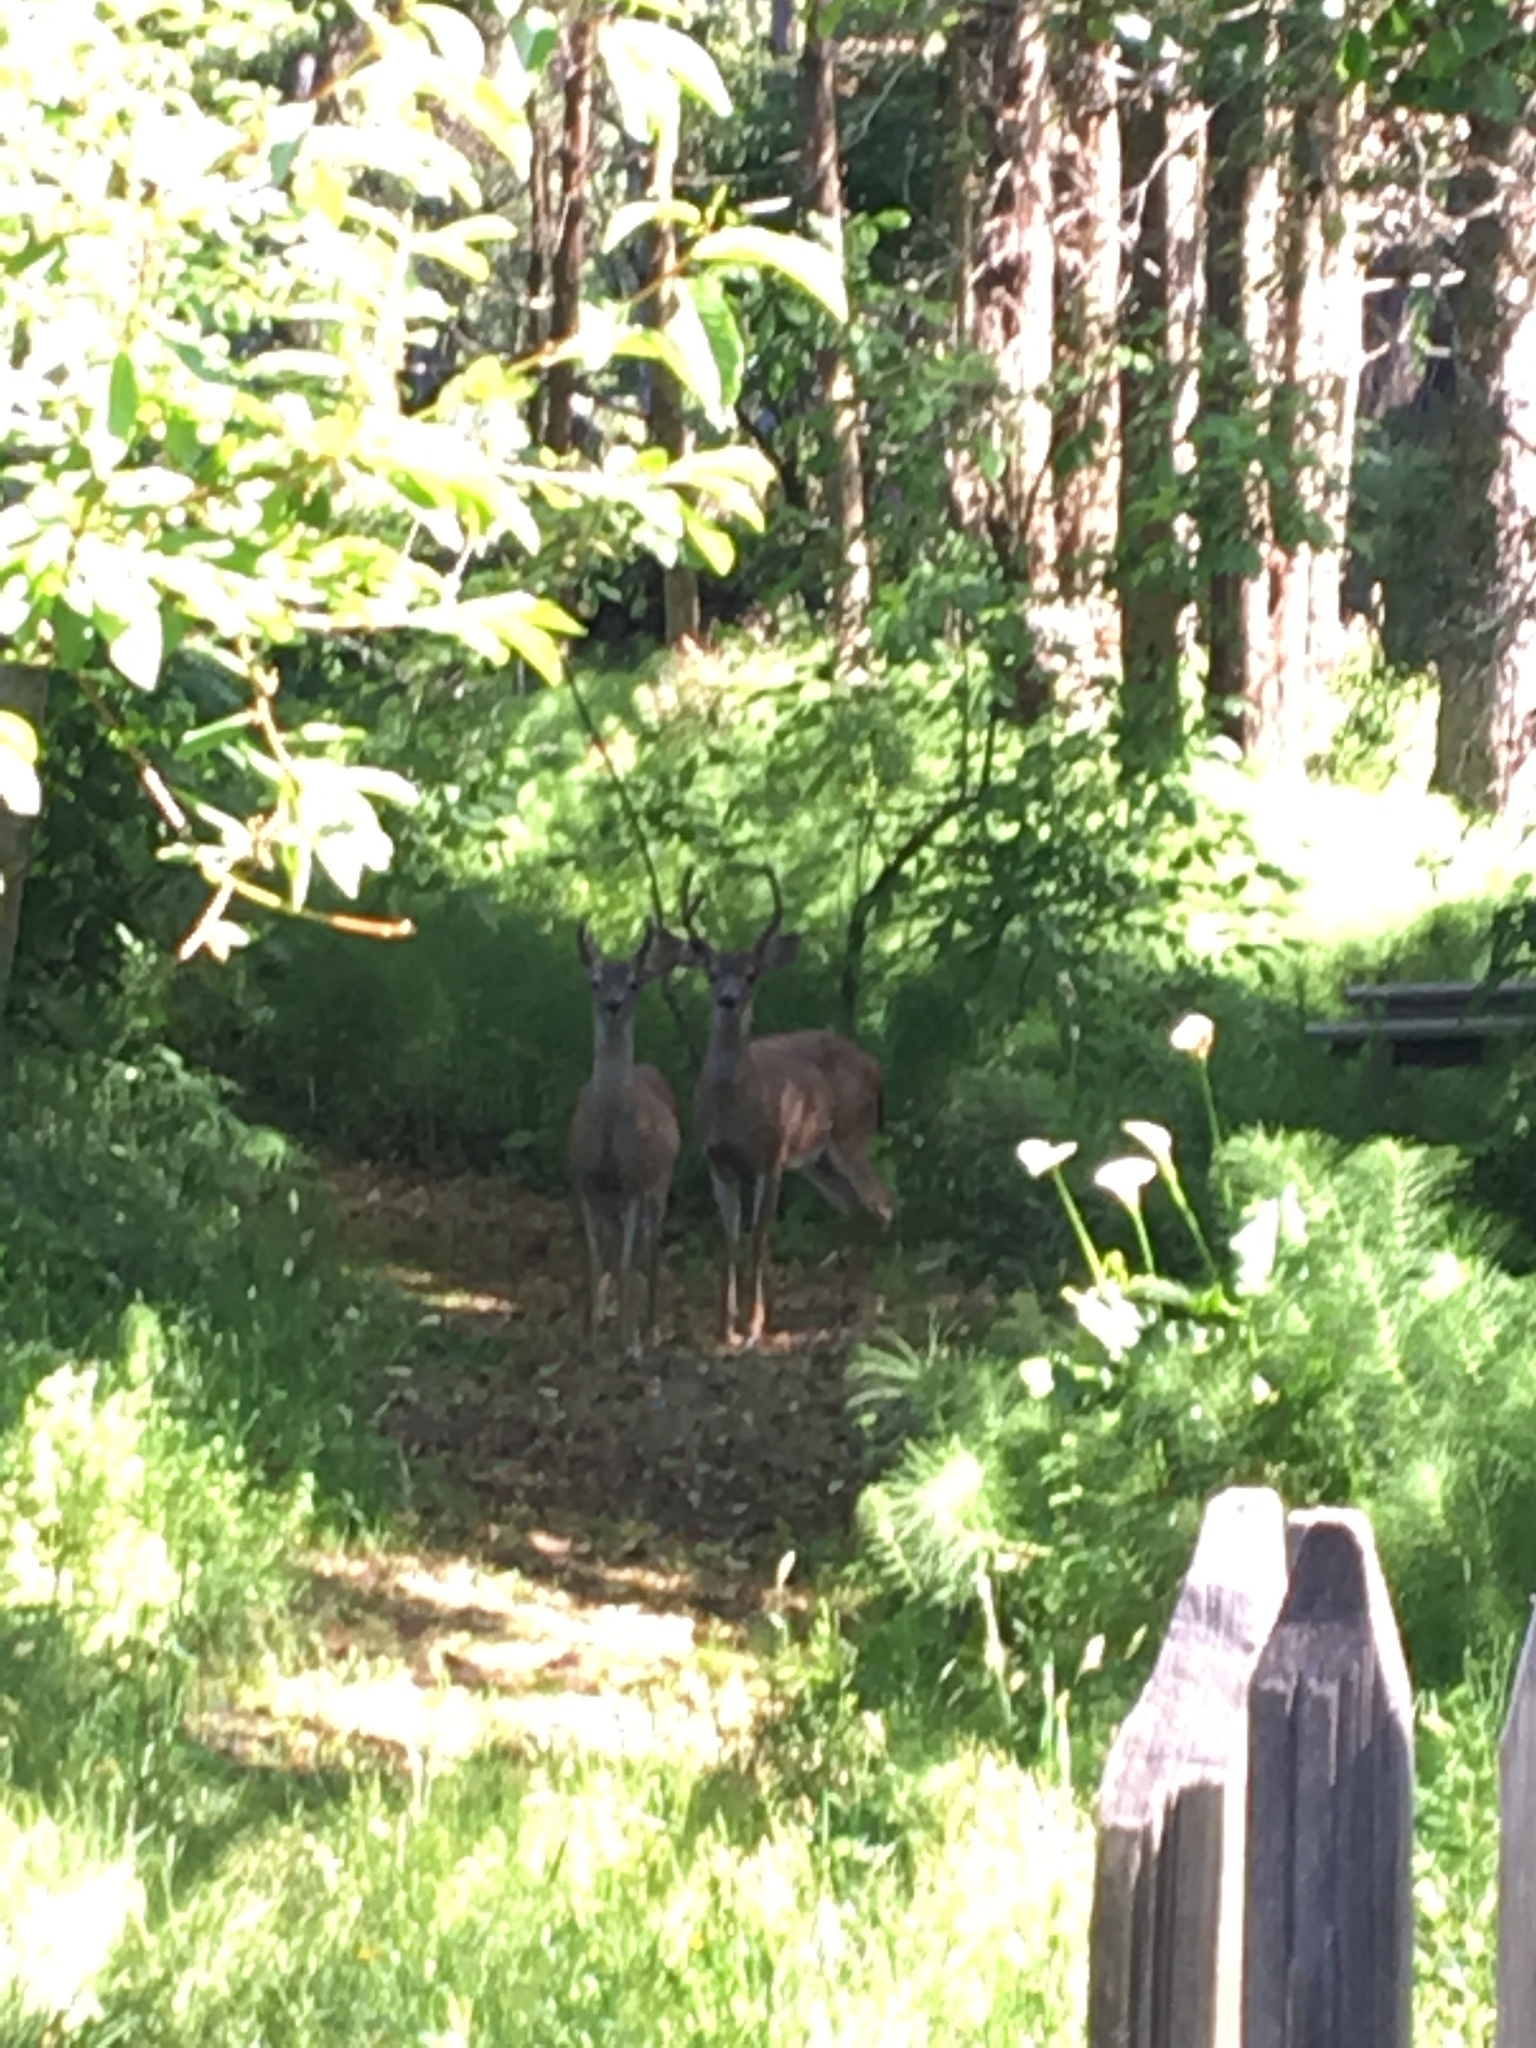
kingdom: Animalia
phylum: Chordata
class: Mammalia
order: Artiodactyla
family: Cervidae
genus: Odocoileus
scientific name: Odocoileus hemionus
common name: Mule deer
